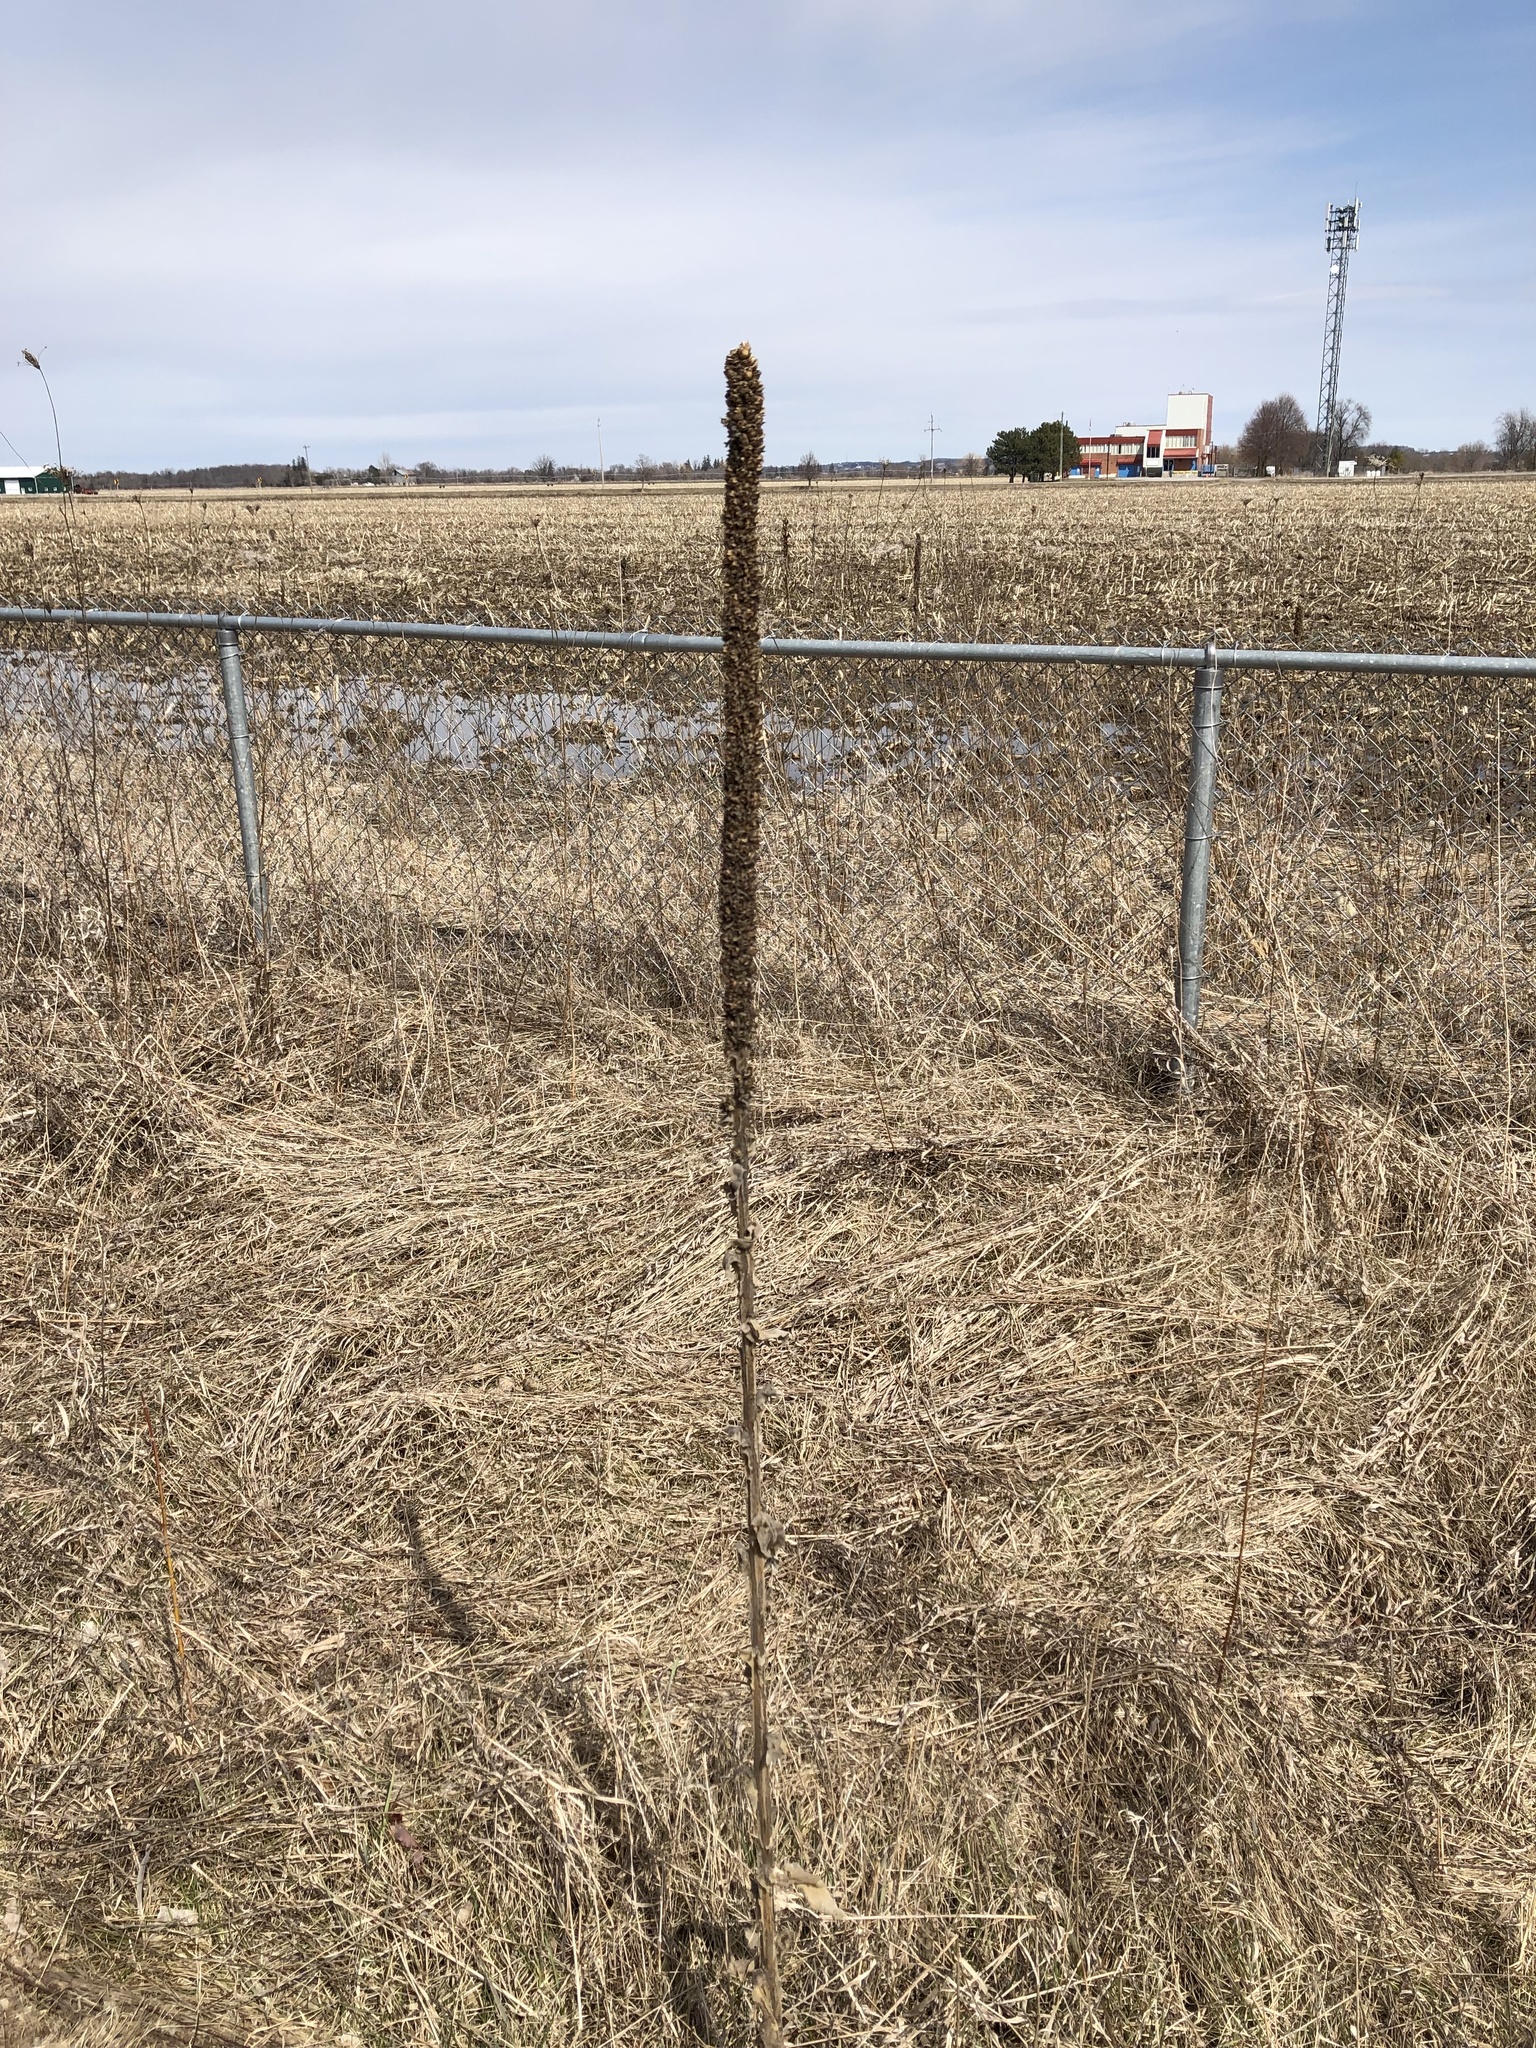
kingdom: Plantae
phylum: Tracheophyta
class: Magnoliopsida
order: Lamiales
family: Scrophulariaceae
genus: Verbascum
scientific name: Verbascum thapsus
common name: Common mullein
